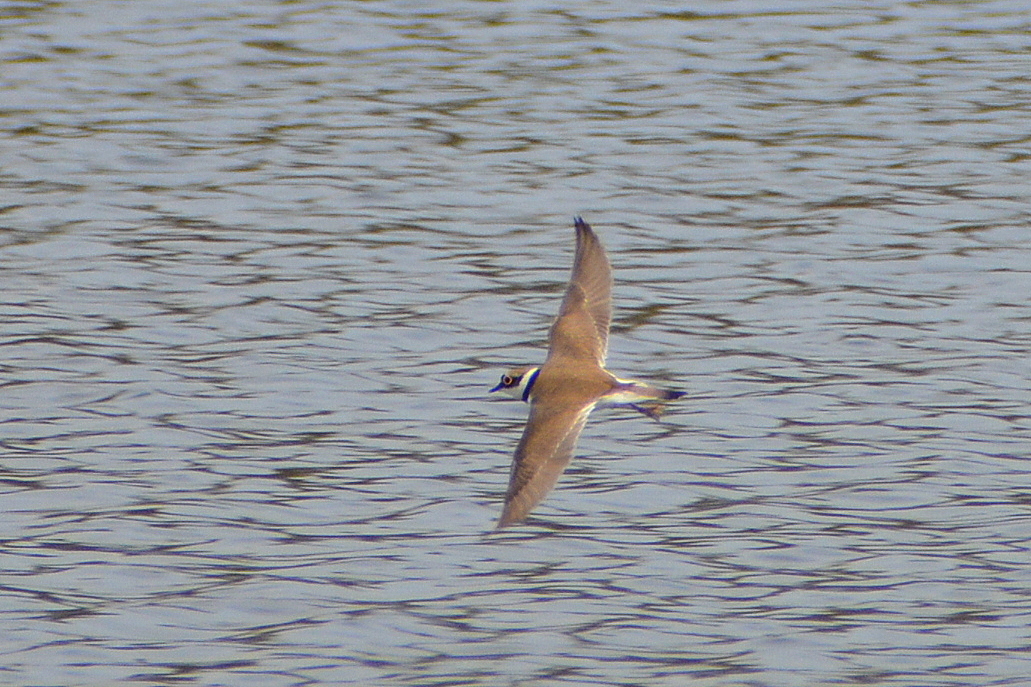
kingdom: Animalia
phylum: Chordata
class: Aves
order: Charadriiformes
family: Charadriidae
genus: Charadrius
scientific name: Charadrius dubius
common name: Little ringed plover
